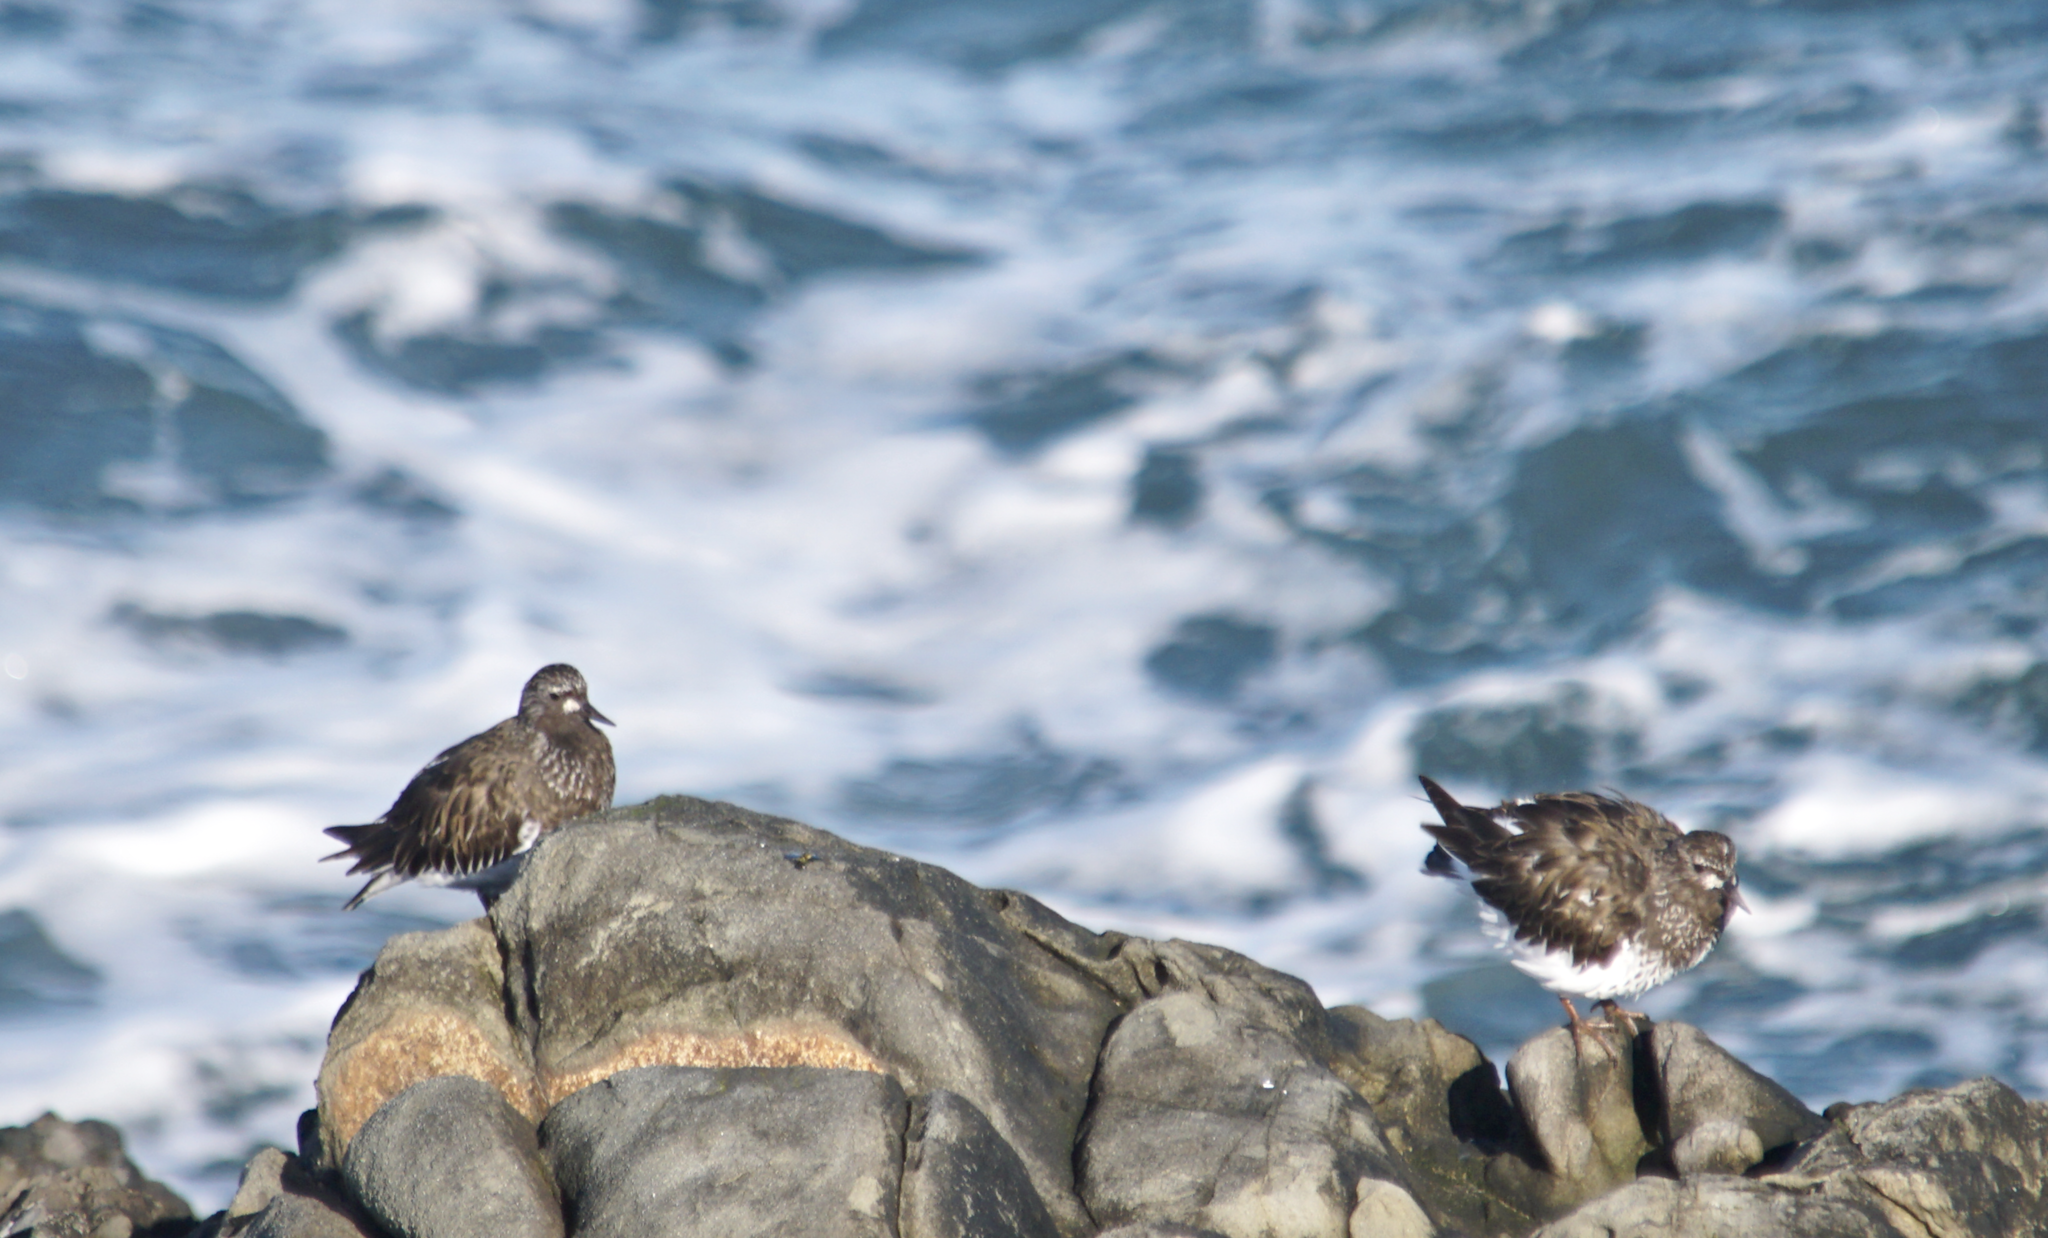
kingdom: Animalia
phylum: Chordata
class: Aves
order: Charadriiformes
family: Scolopacidae
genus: Arenaria
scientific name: Arenaria melanocephala
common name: Black turnstone
